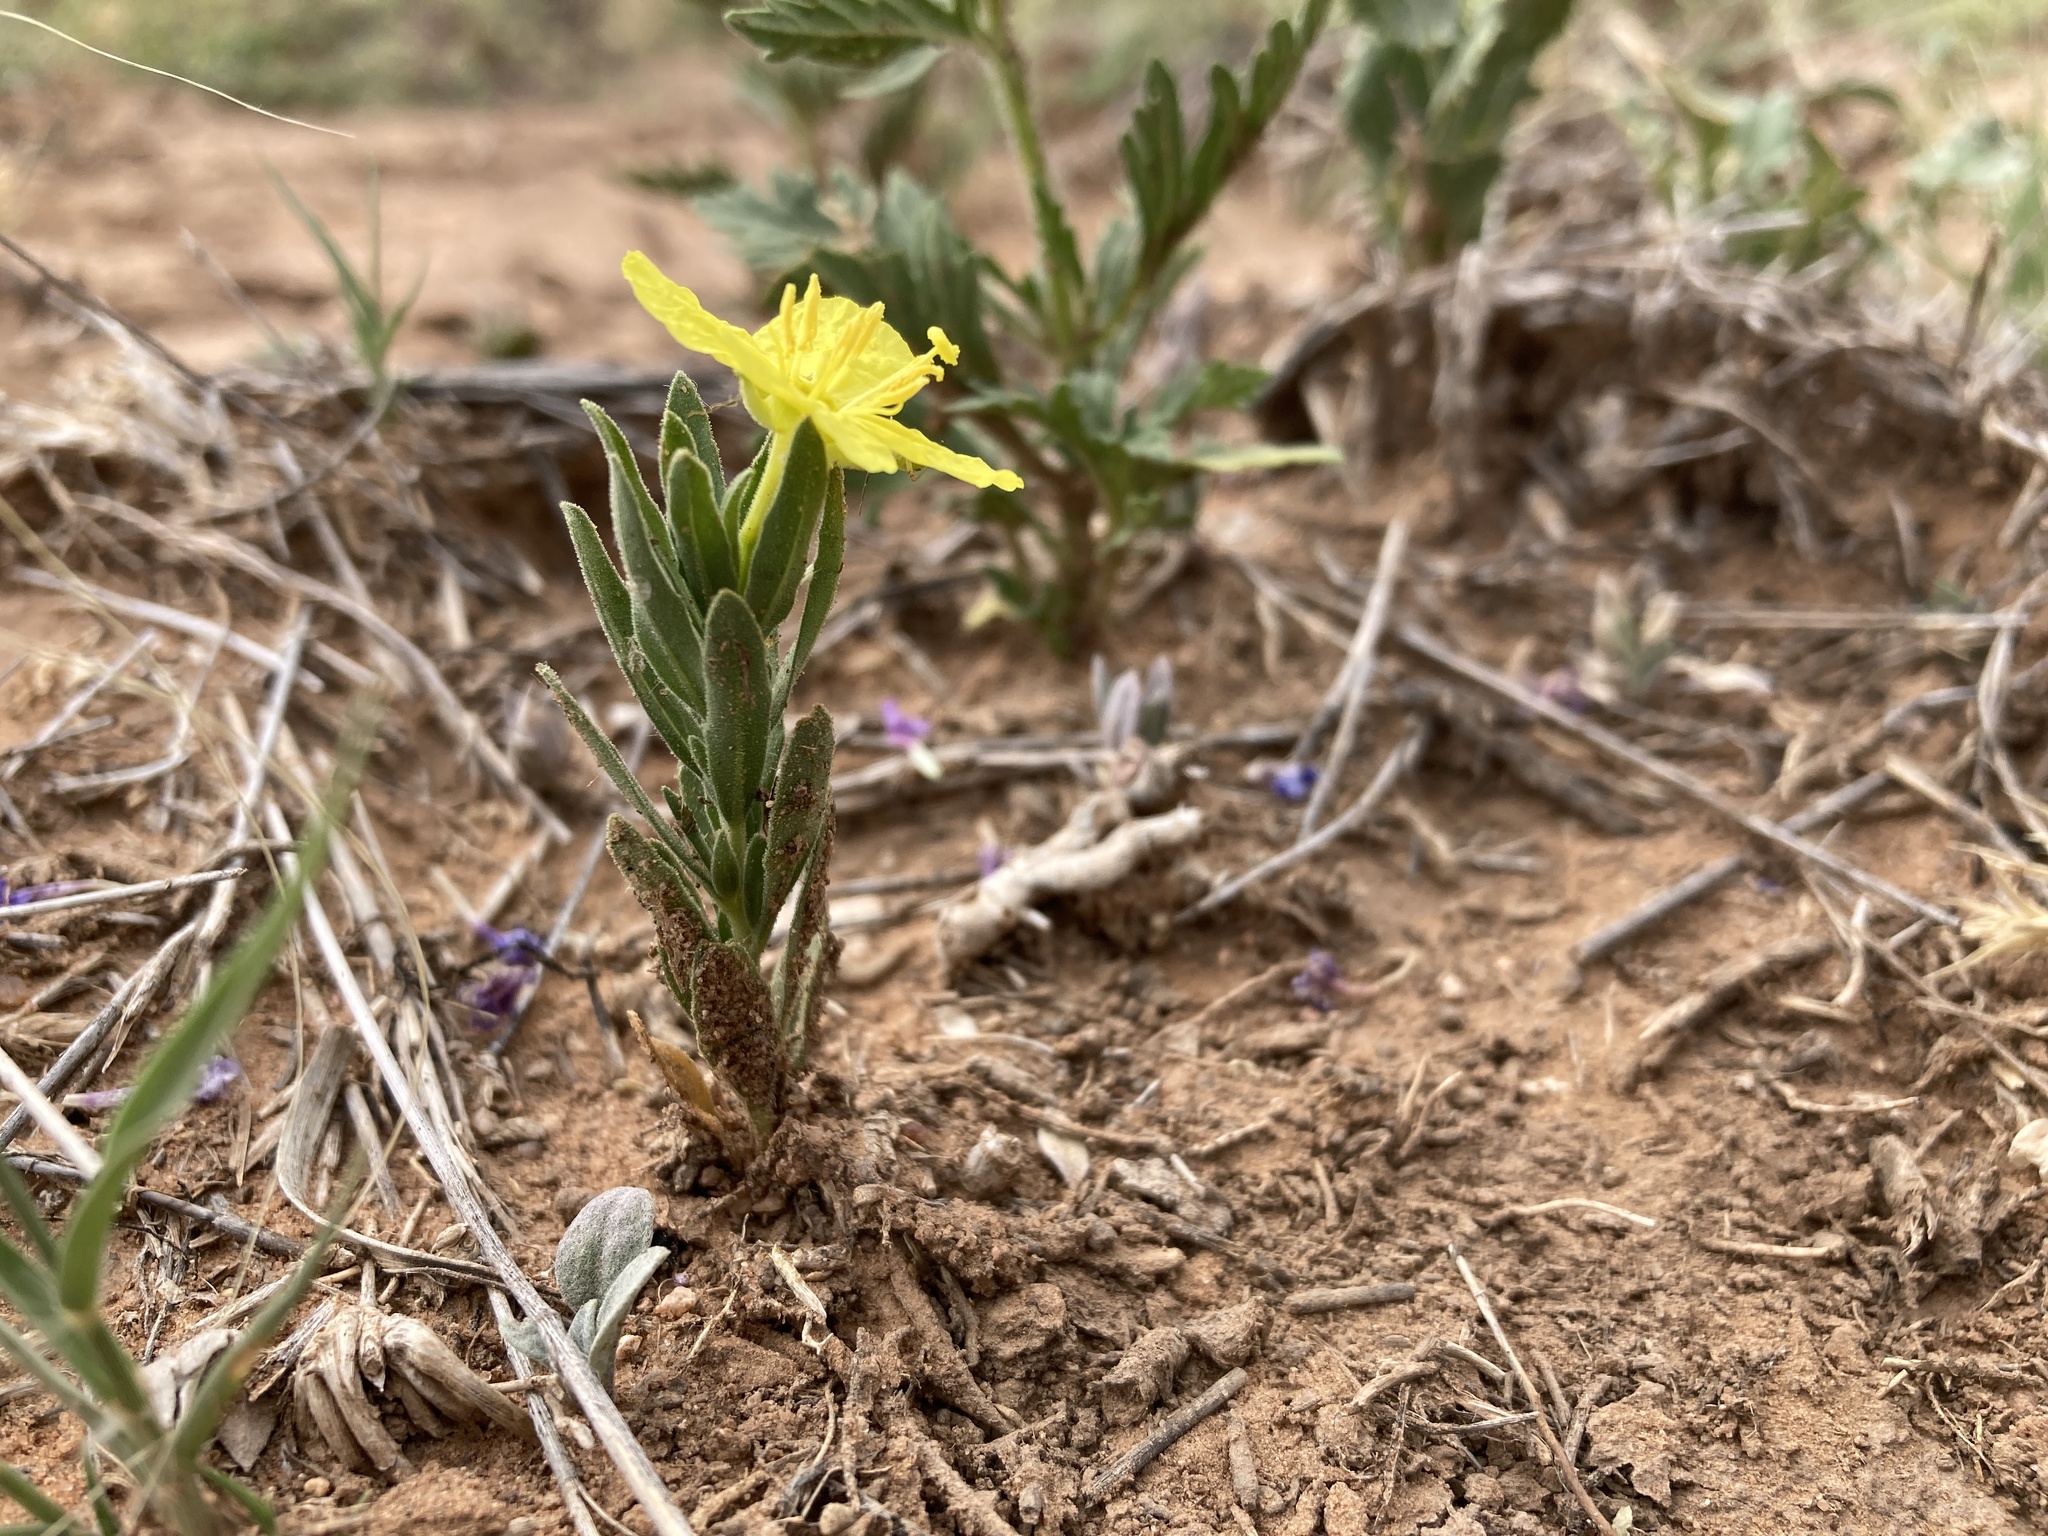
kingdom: Plantae
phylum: Tracheophyta
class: Magnoliopsida
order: Myrtales
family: Onagraceae
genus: Oenothera
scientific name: Oenothera tubicula
